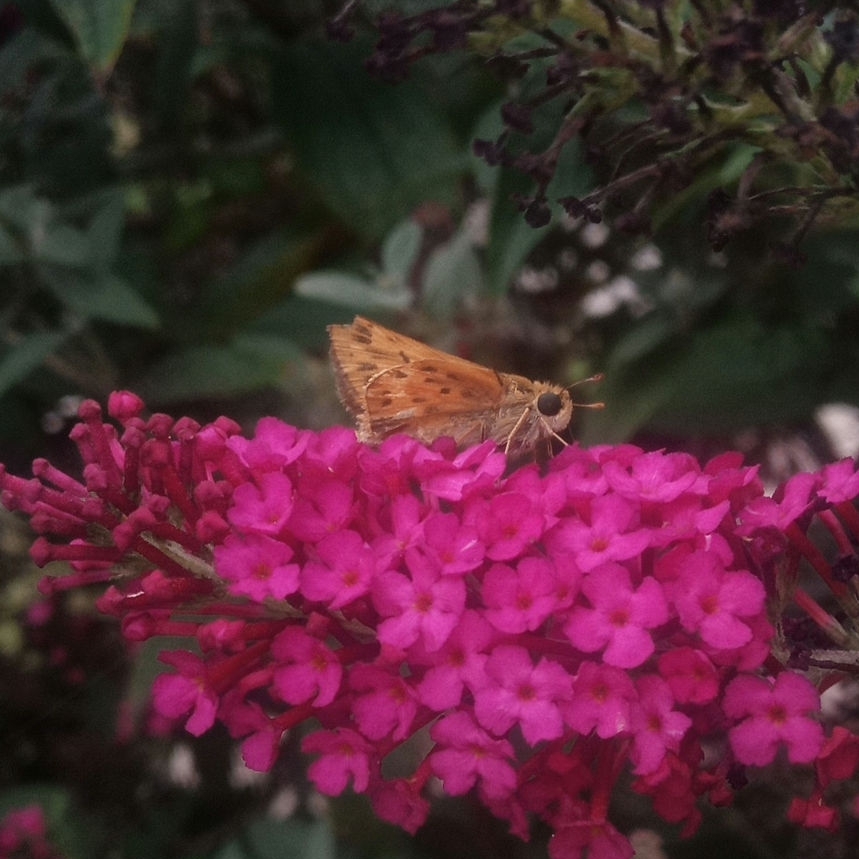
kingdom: Animalia
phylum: Arthropoda
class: Insecta
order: Lepidoptera
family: Hesperiidae
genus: Hylephila
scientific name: Hylephila phyleus
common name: Fiery skipper
